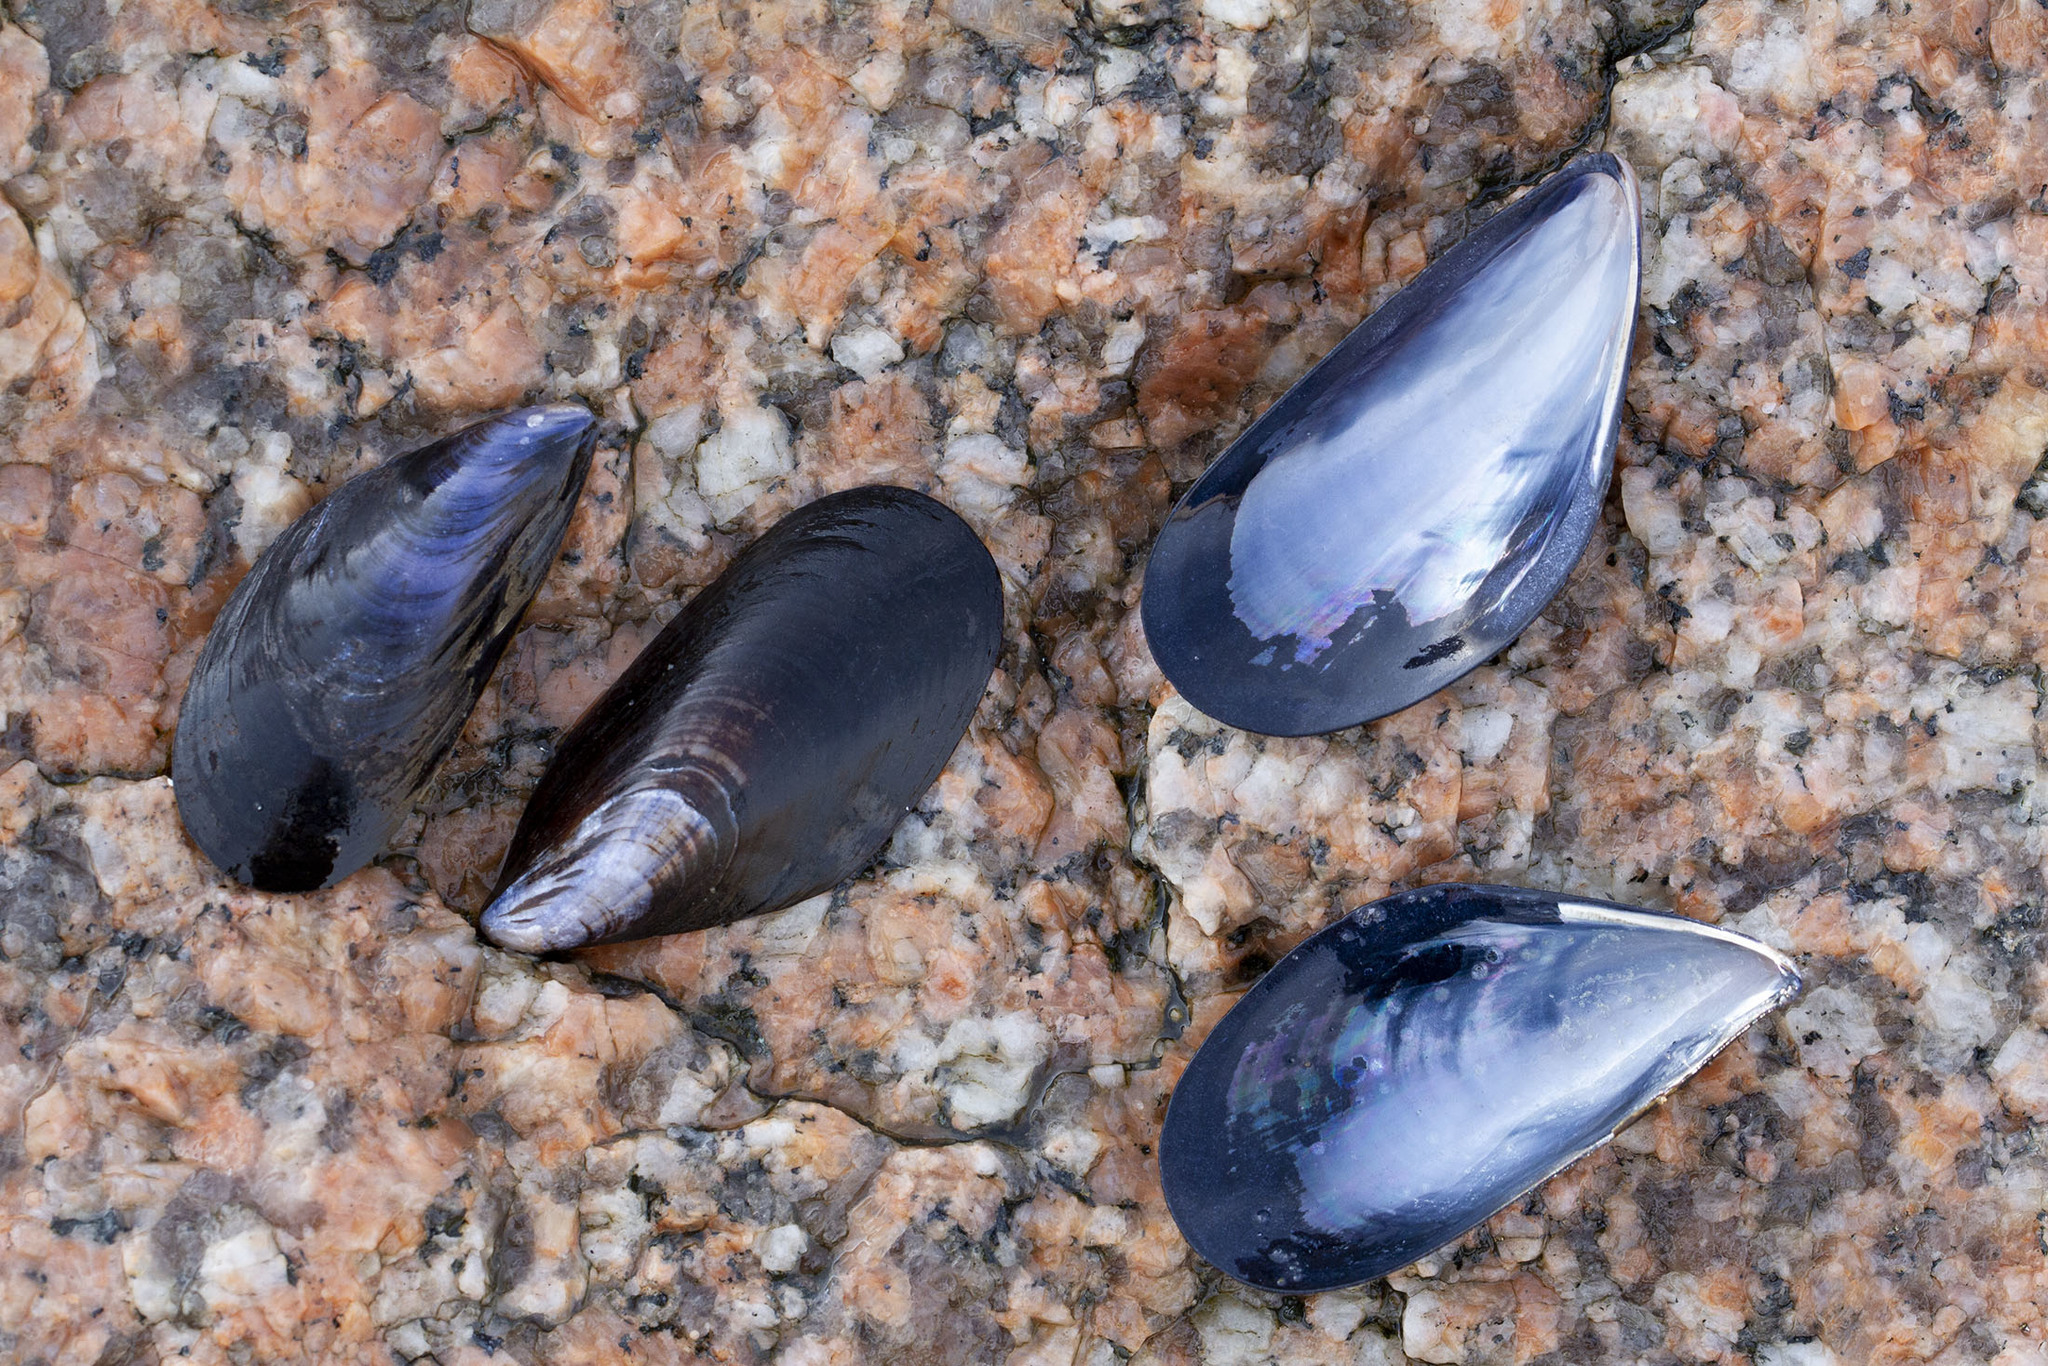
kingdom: Animalia
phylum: Mollusca
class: Bivalvia
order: Mytilida
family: Mytilidae
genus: Mytilus
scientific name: Mytilus edulis
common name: Blue mussel
